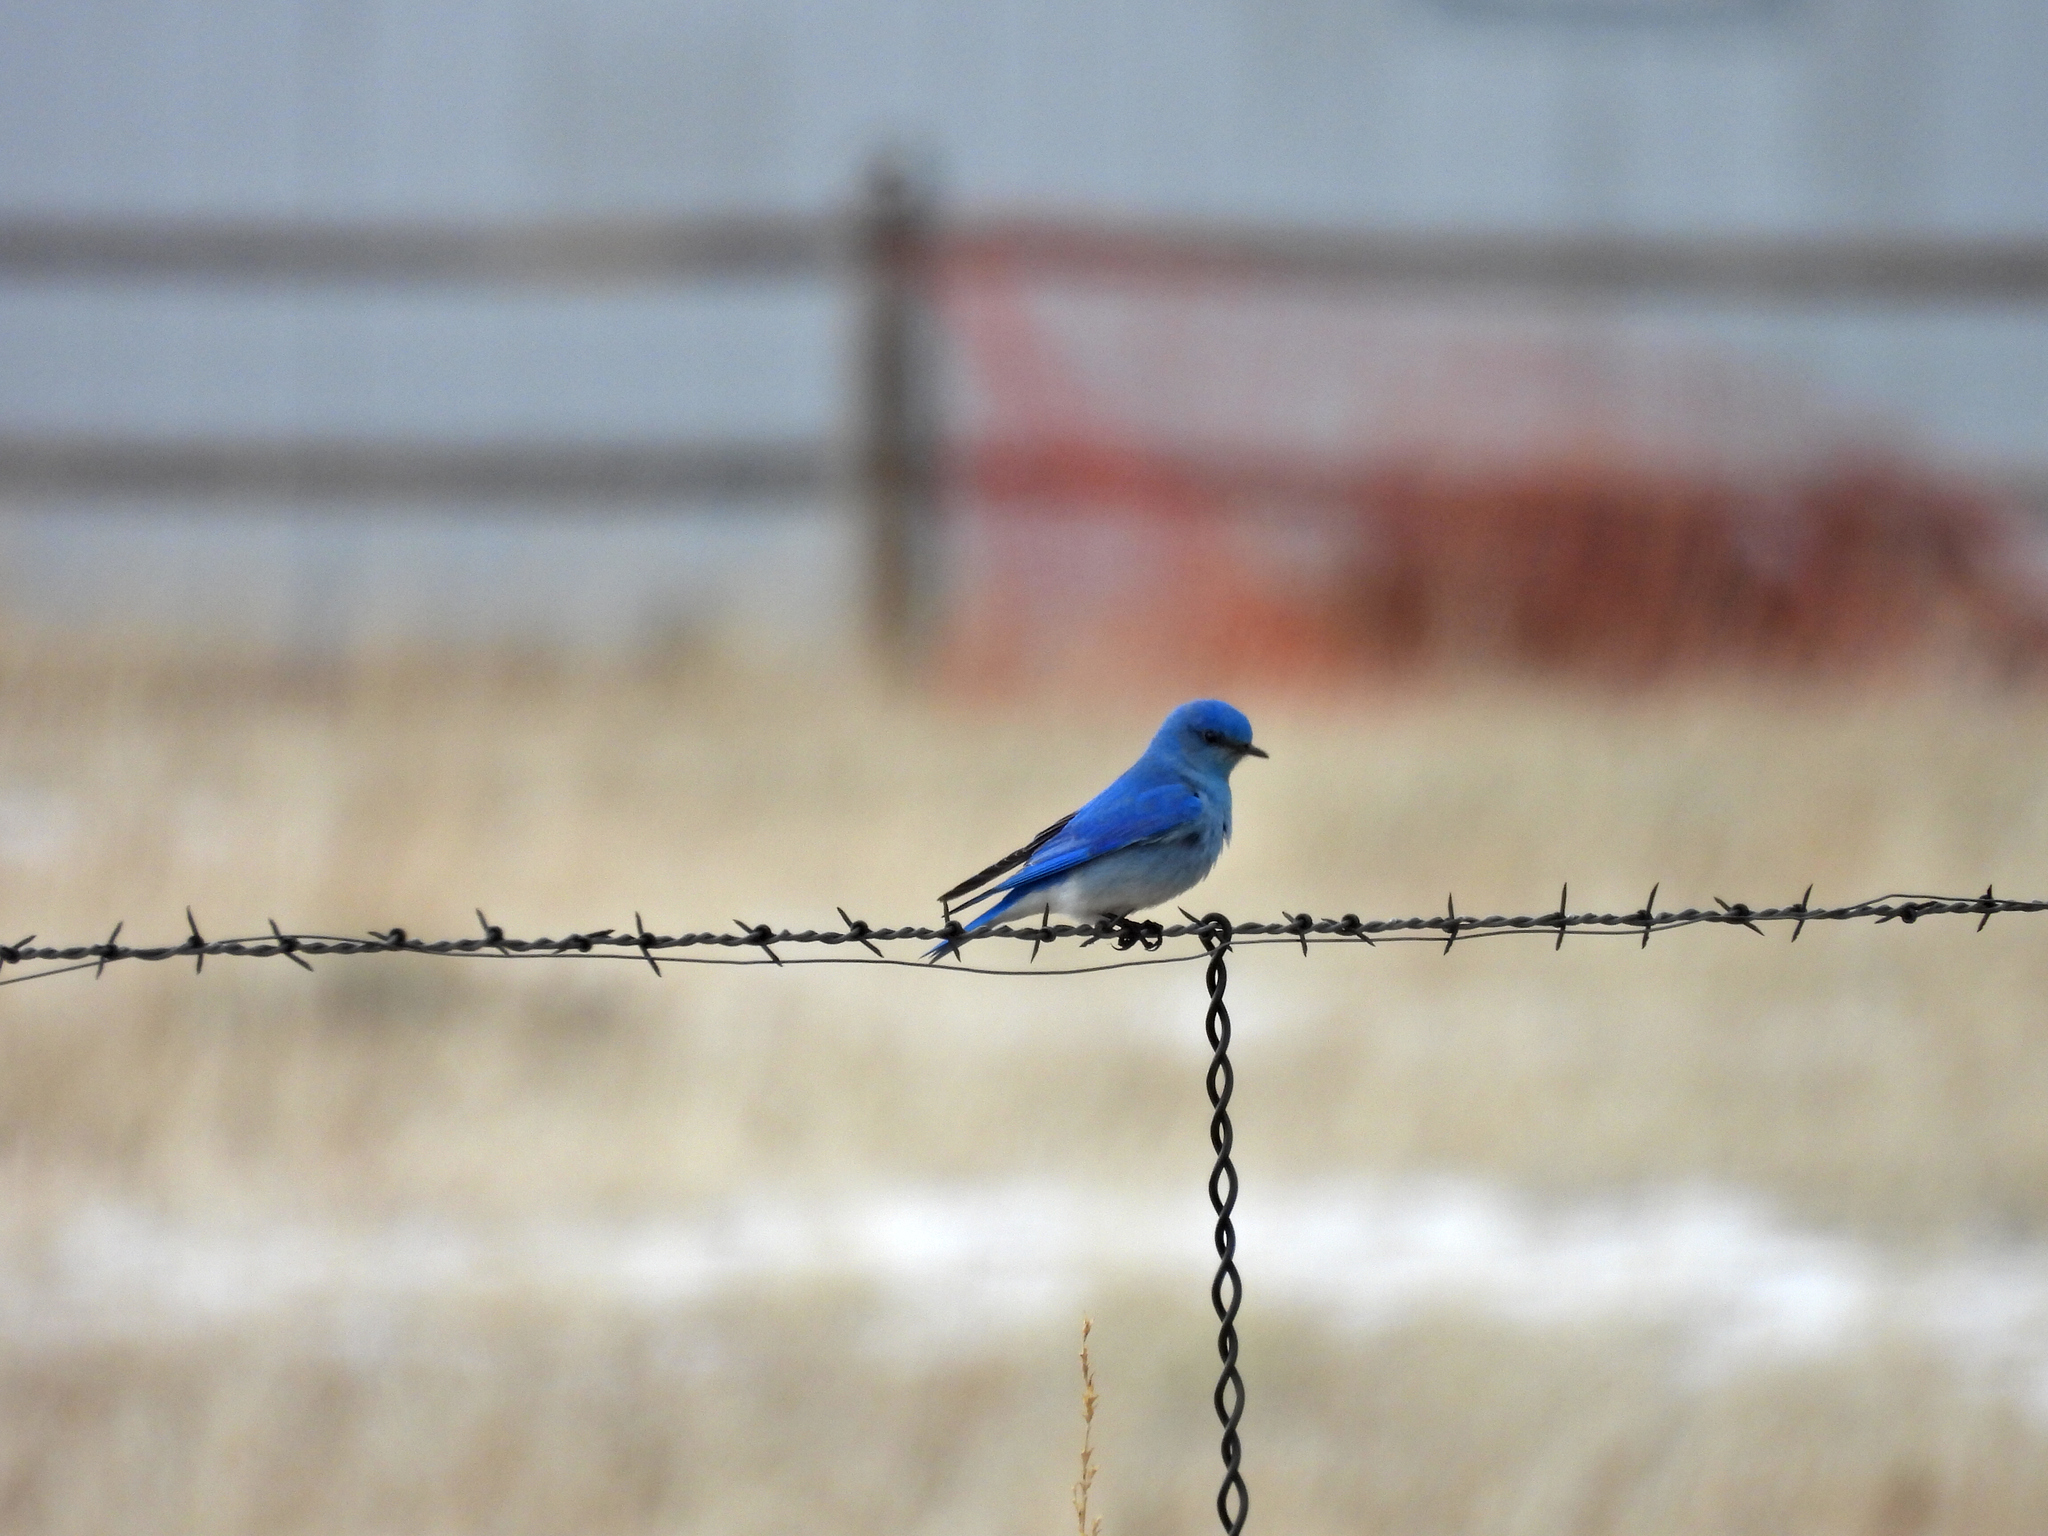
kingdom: Animalia
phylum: Chordata
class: Aves
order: Passeriformes
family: Turdidae
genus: Sialia
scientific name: Sialia currucoides
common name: Mountain bluebird
